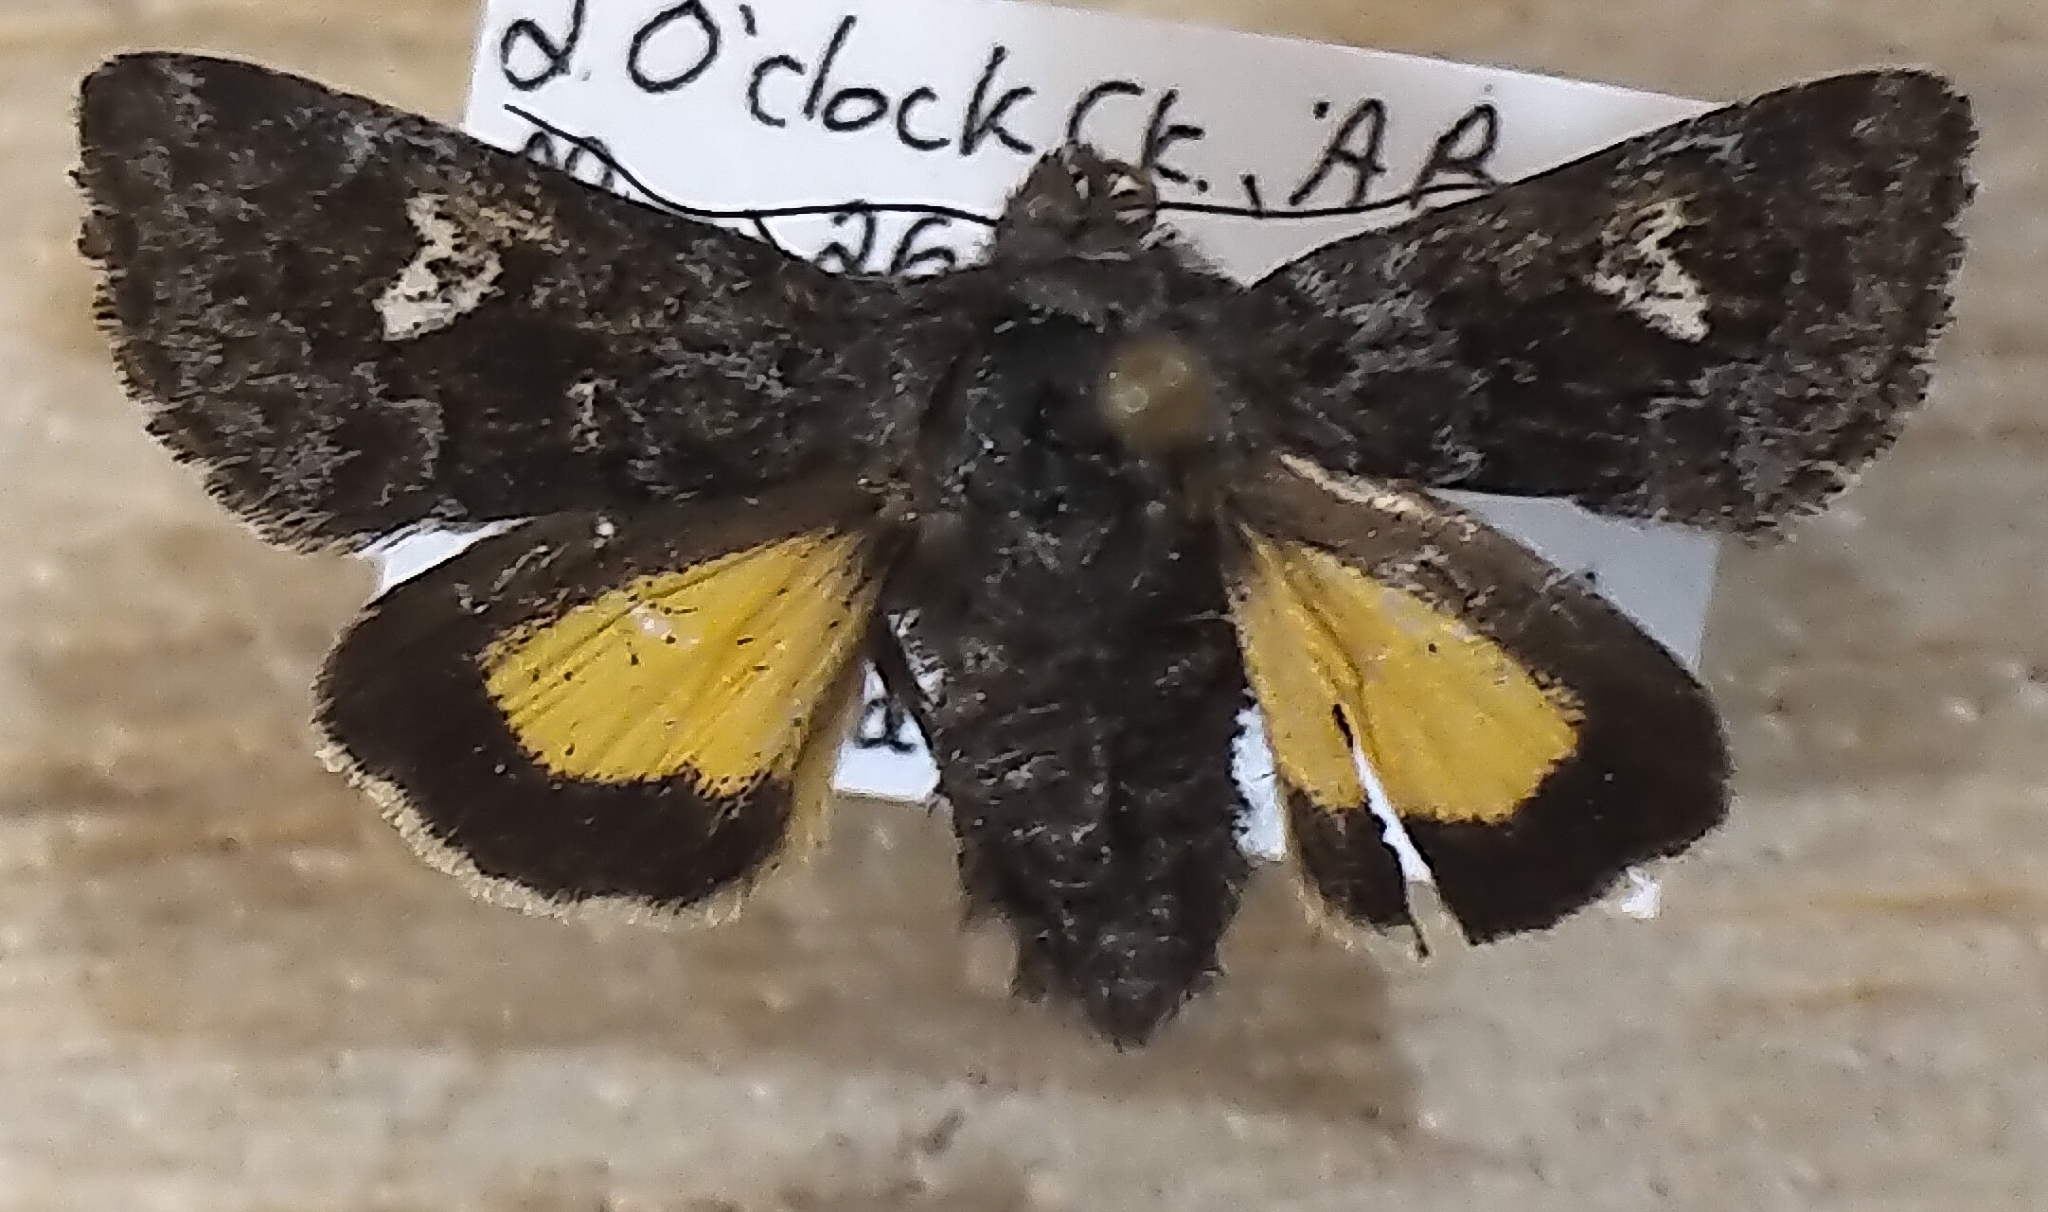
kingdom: Animalia
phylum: Arthropoda
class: Insecta
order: Lepidoptera
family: Noctuidae
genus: Coranarta
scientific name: Coranarta luteola
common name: Small dark yellow underwing
